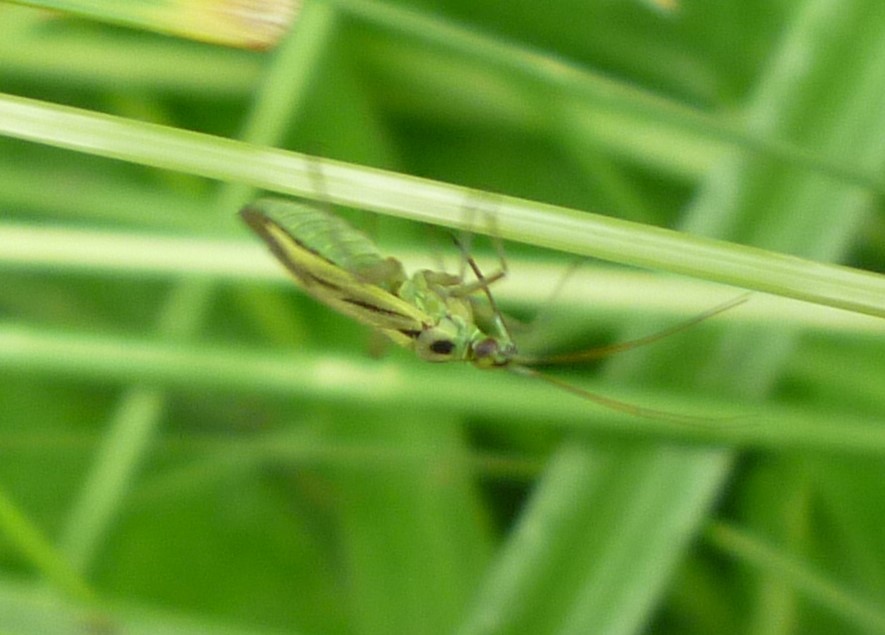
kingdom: Animalia
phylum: Arthropoda
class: Insecta
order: Hemiptera
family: Miridae
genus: Stenotus
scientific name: Stenotus binotatus
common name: Plant bug
